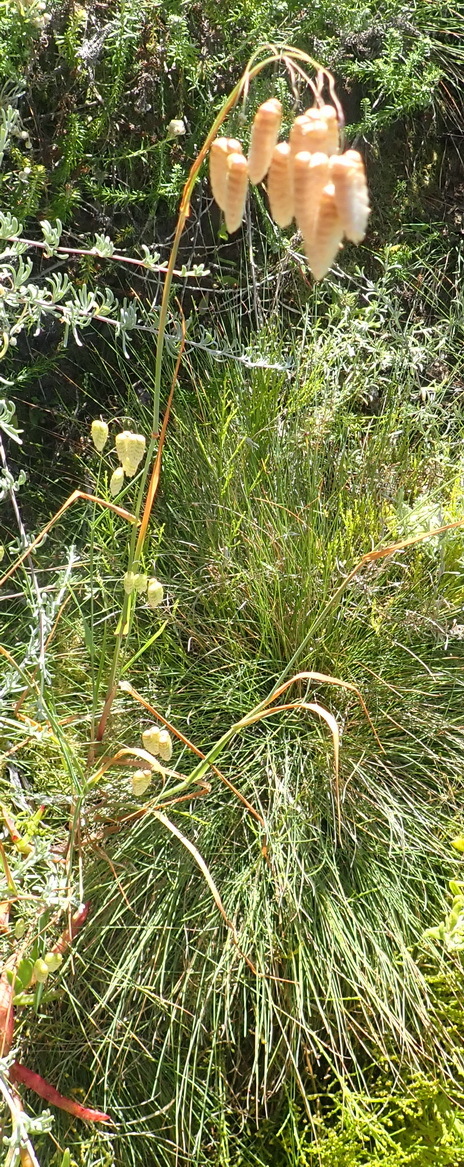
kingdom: Plantae
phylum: Tracheophyta
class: Liliopsida
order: Poales
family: Poaceae
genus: Briza
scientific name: Briza maxima
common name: Big quakinggrass
